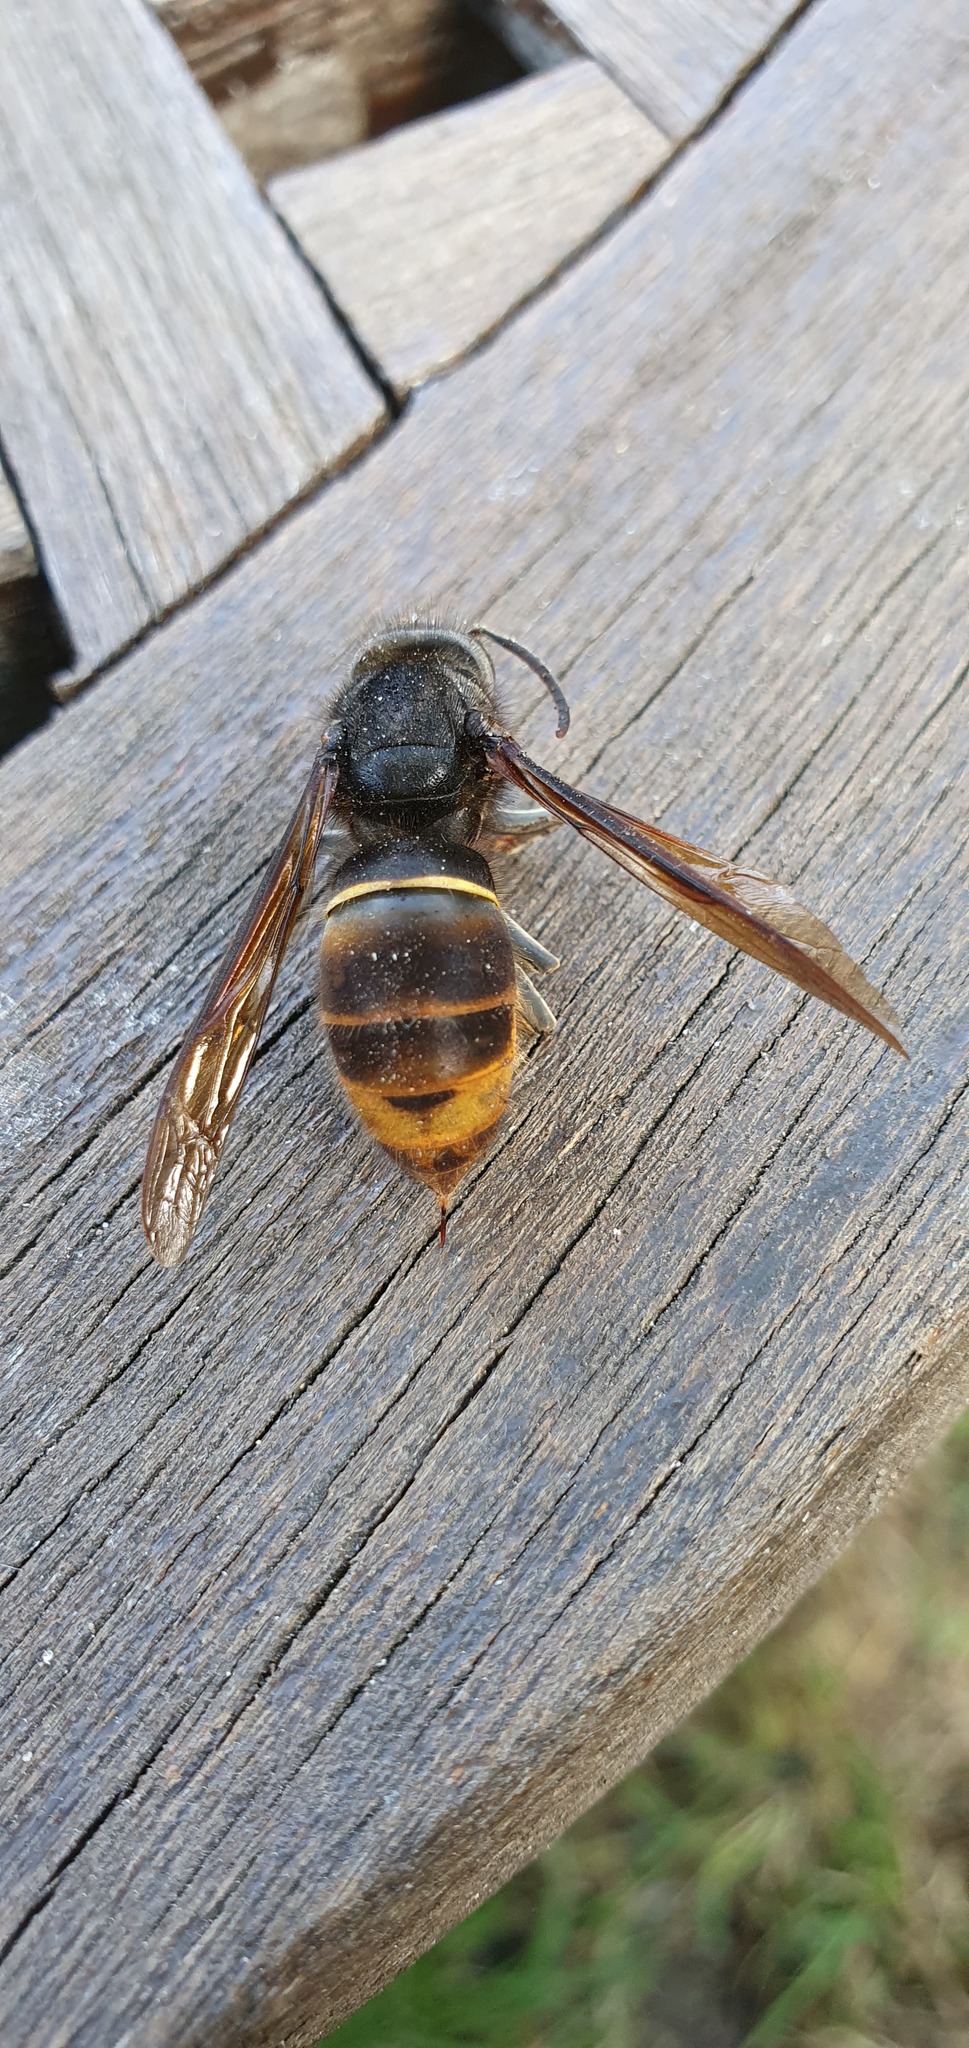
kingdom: Animalia
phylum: Arthropoda
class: Insecta
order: Hymenoptera
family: Vespidae
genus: Vespa
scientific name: Vespa velutina
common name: Asian hornet
